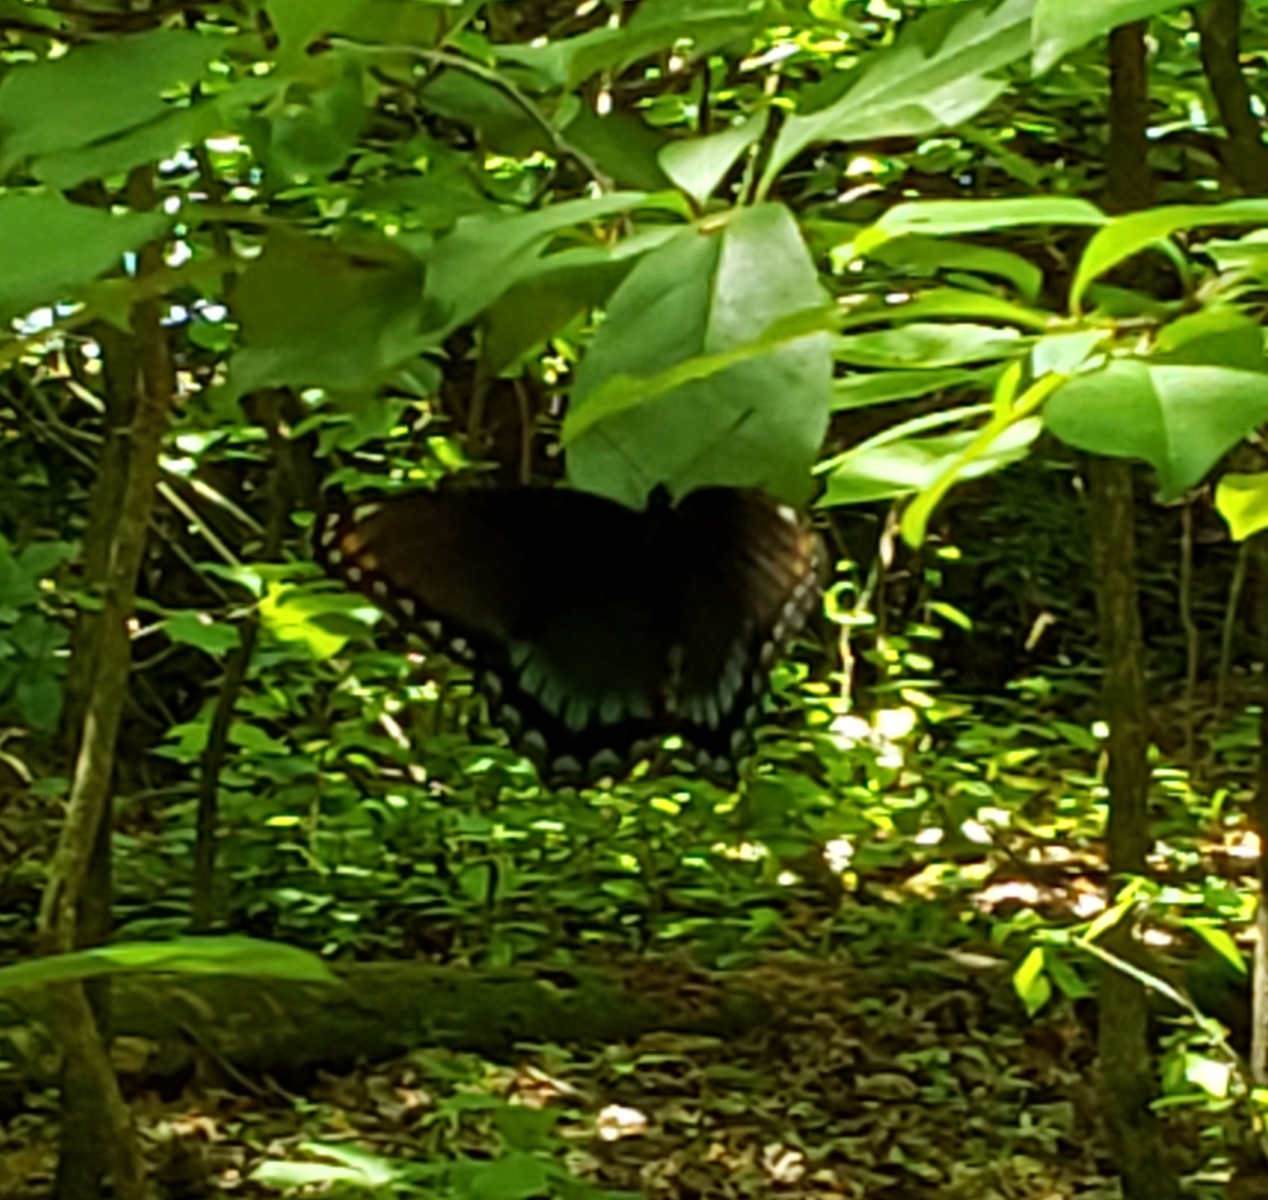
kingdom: Animalia
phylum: Arthropoda
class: Insecta
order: Lepidoptera
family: Nymphalidae
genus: Limenitis
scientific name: Limenitis astyanax
